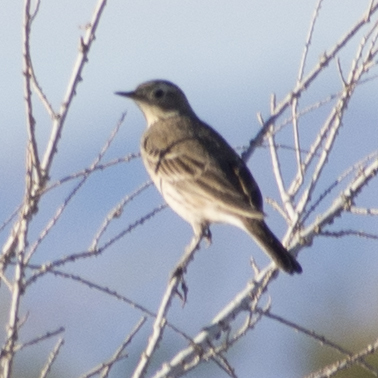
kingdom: Animalia
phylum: Chordata
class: Aves
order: Passeriformes
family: Motacillidae
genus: Anthus
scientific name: Anthus rubescens
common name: Buff-bellied pipit
